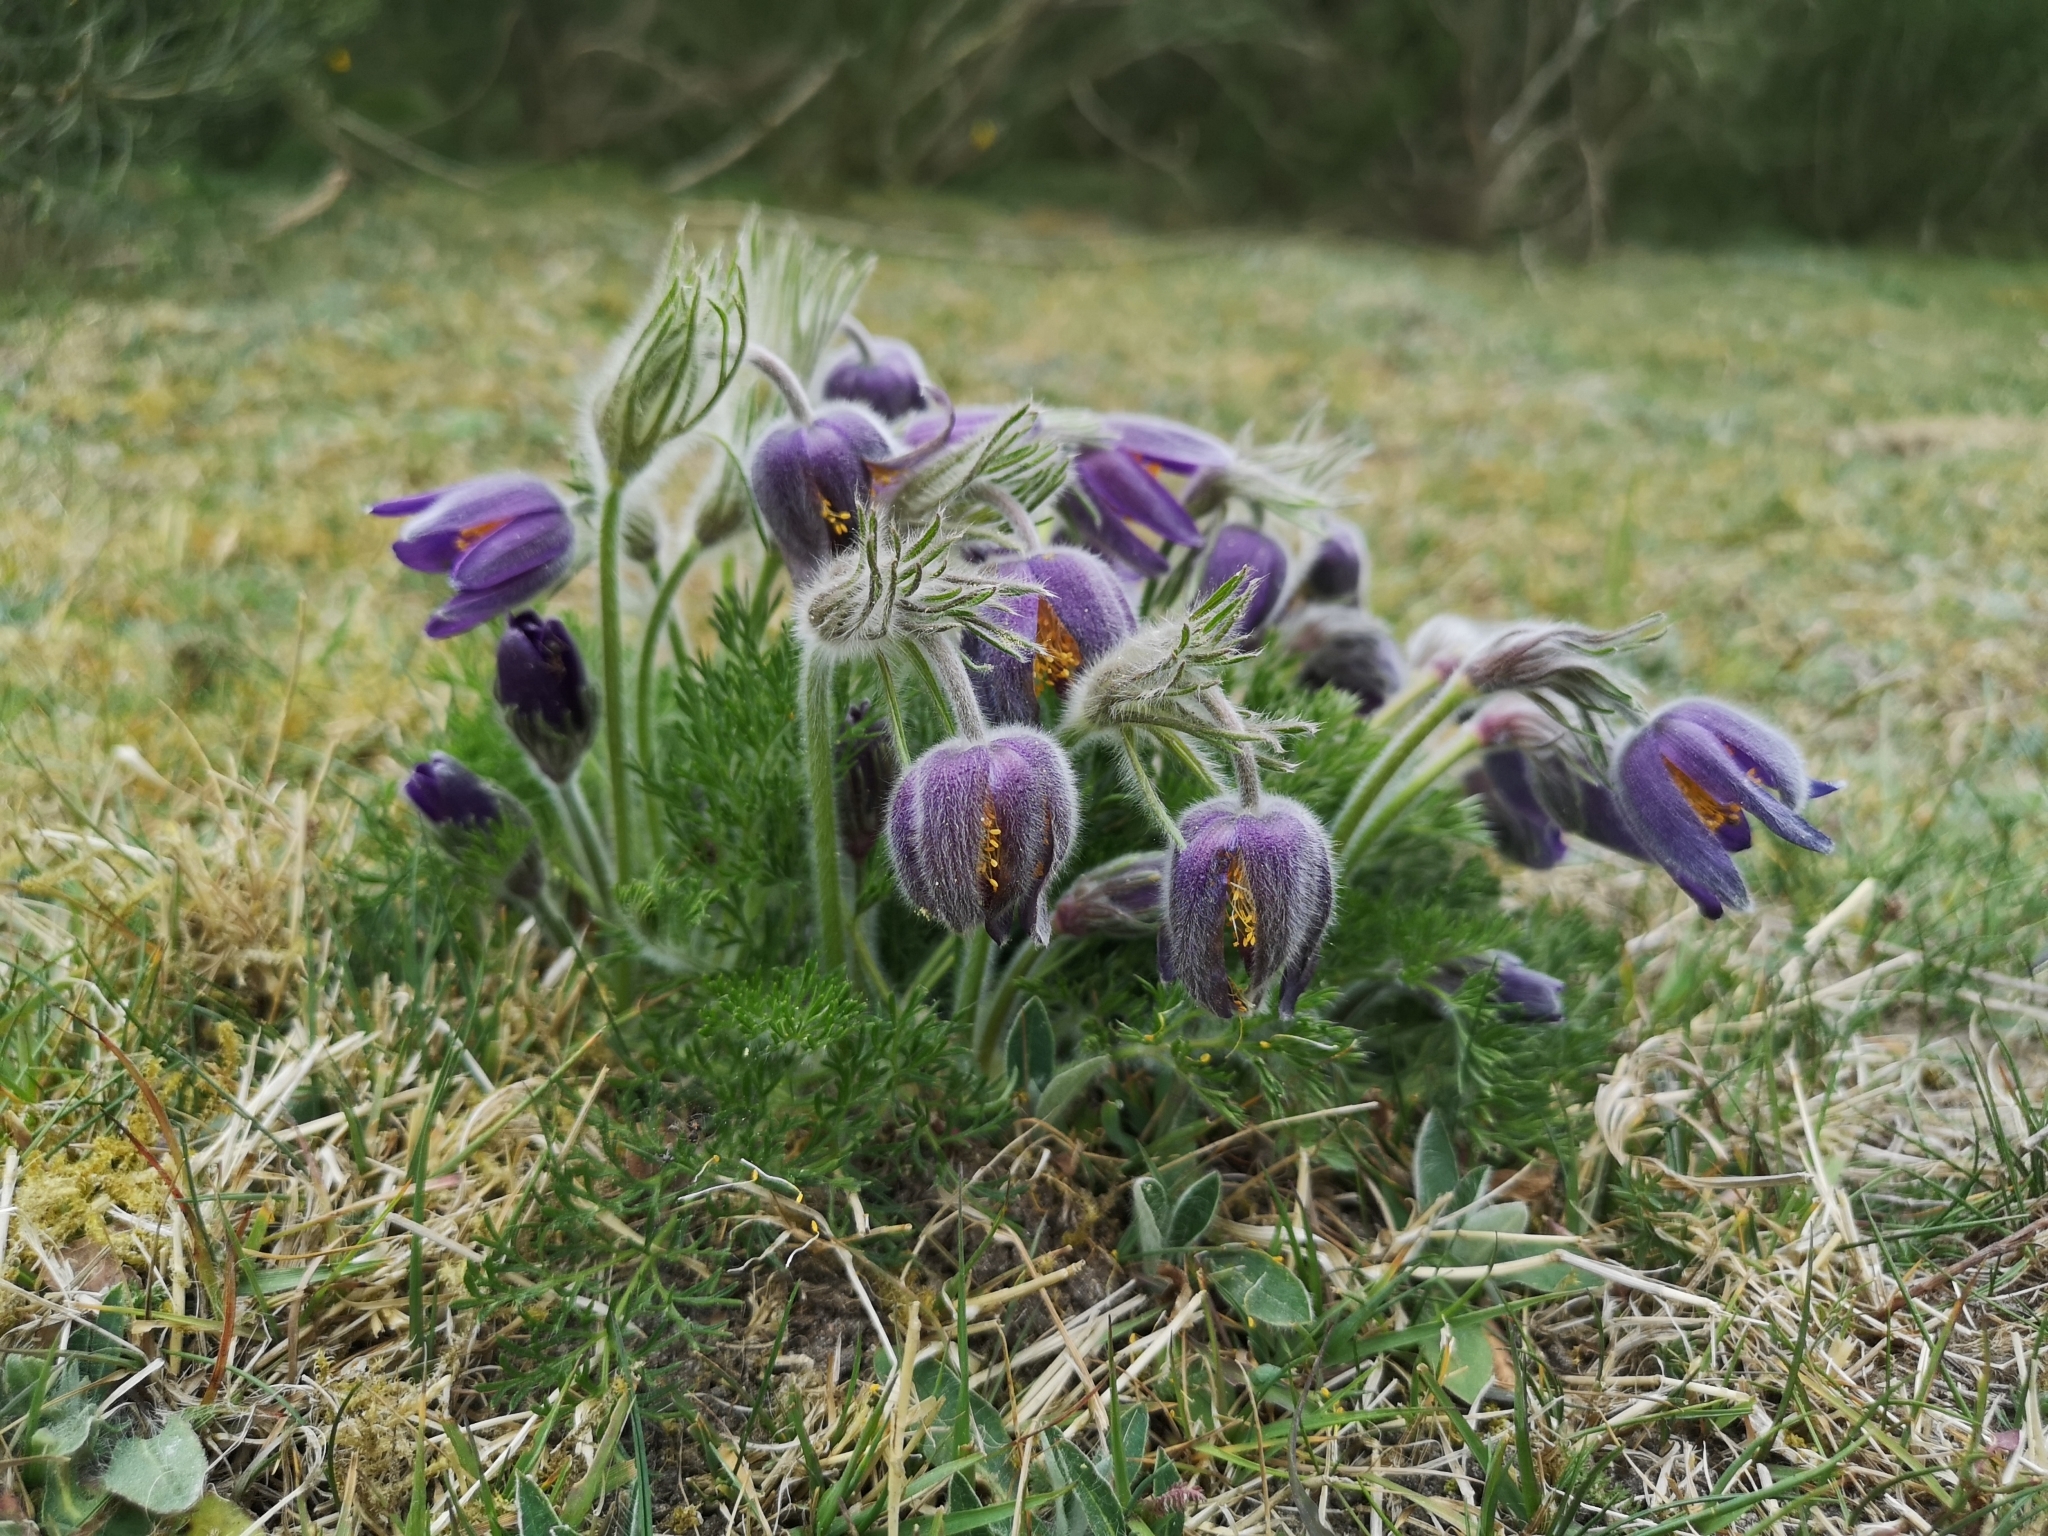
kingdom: Plantae
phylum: Tracheophyta
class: Magnoliopsida
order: Ranunculales
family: Ranunculaceae
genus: Pulsatilla
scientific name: Pulsatilla vulgaris
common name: Pasqueflower
